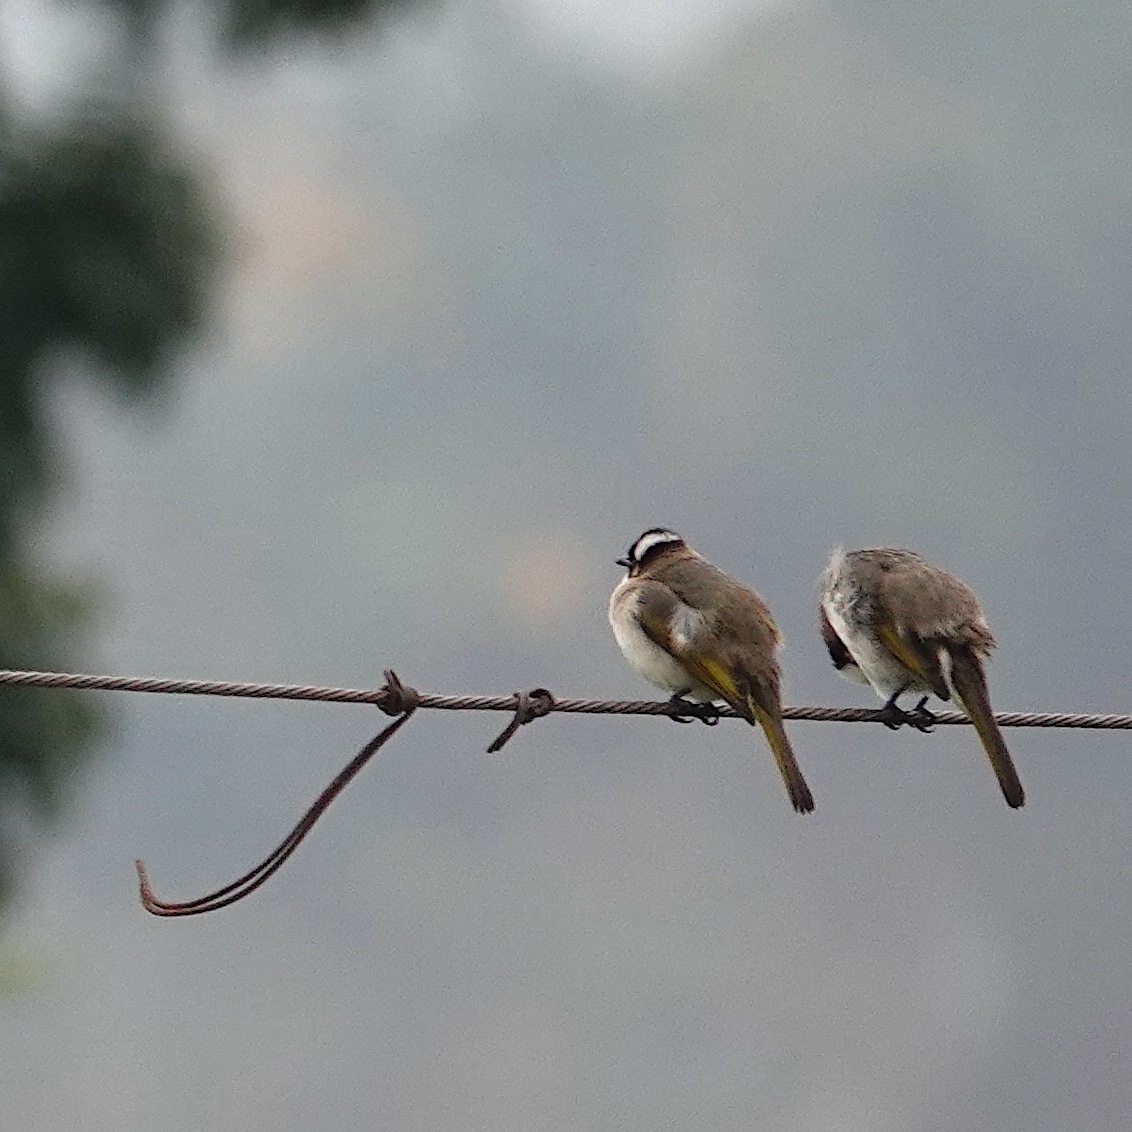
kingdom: Animalia
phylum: Chordata
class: Aves
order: Passeriformes
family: Pycnonotidae
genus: Pycnonotus
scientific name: Pycnonotus sinensis
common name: Light-vented bulbul
